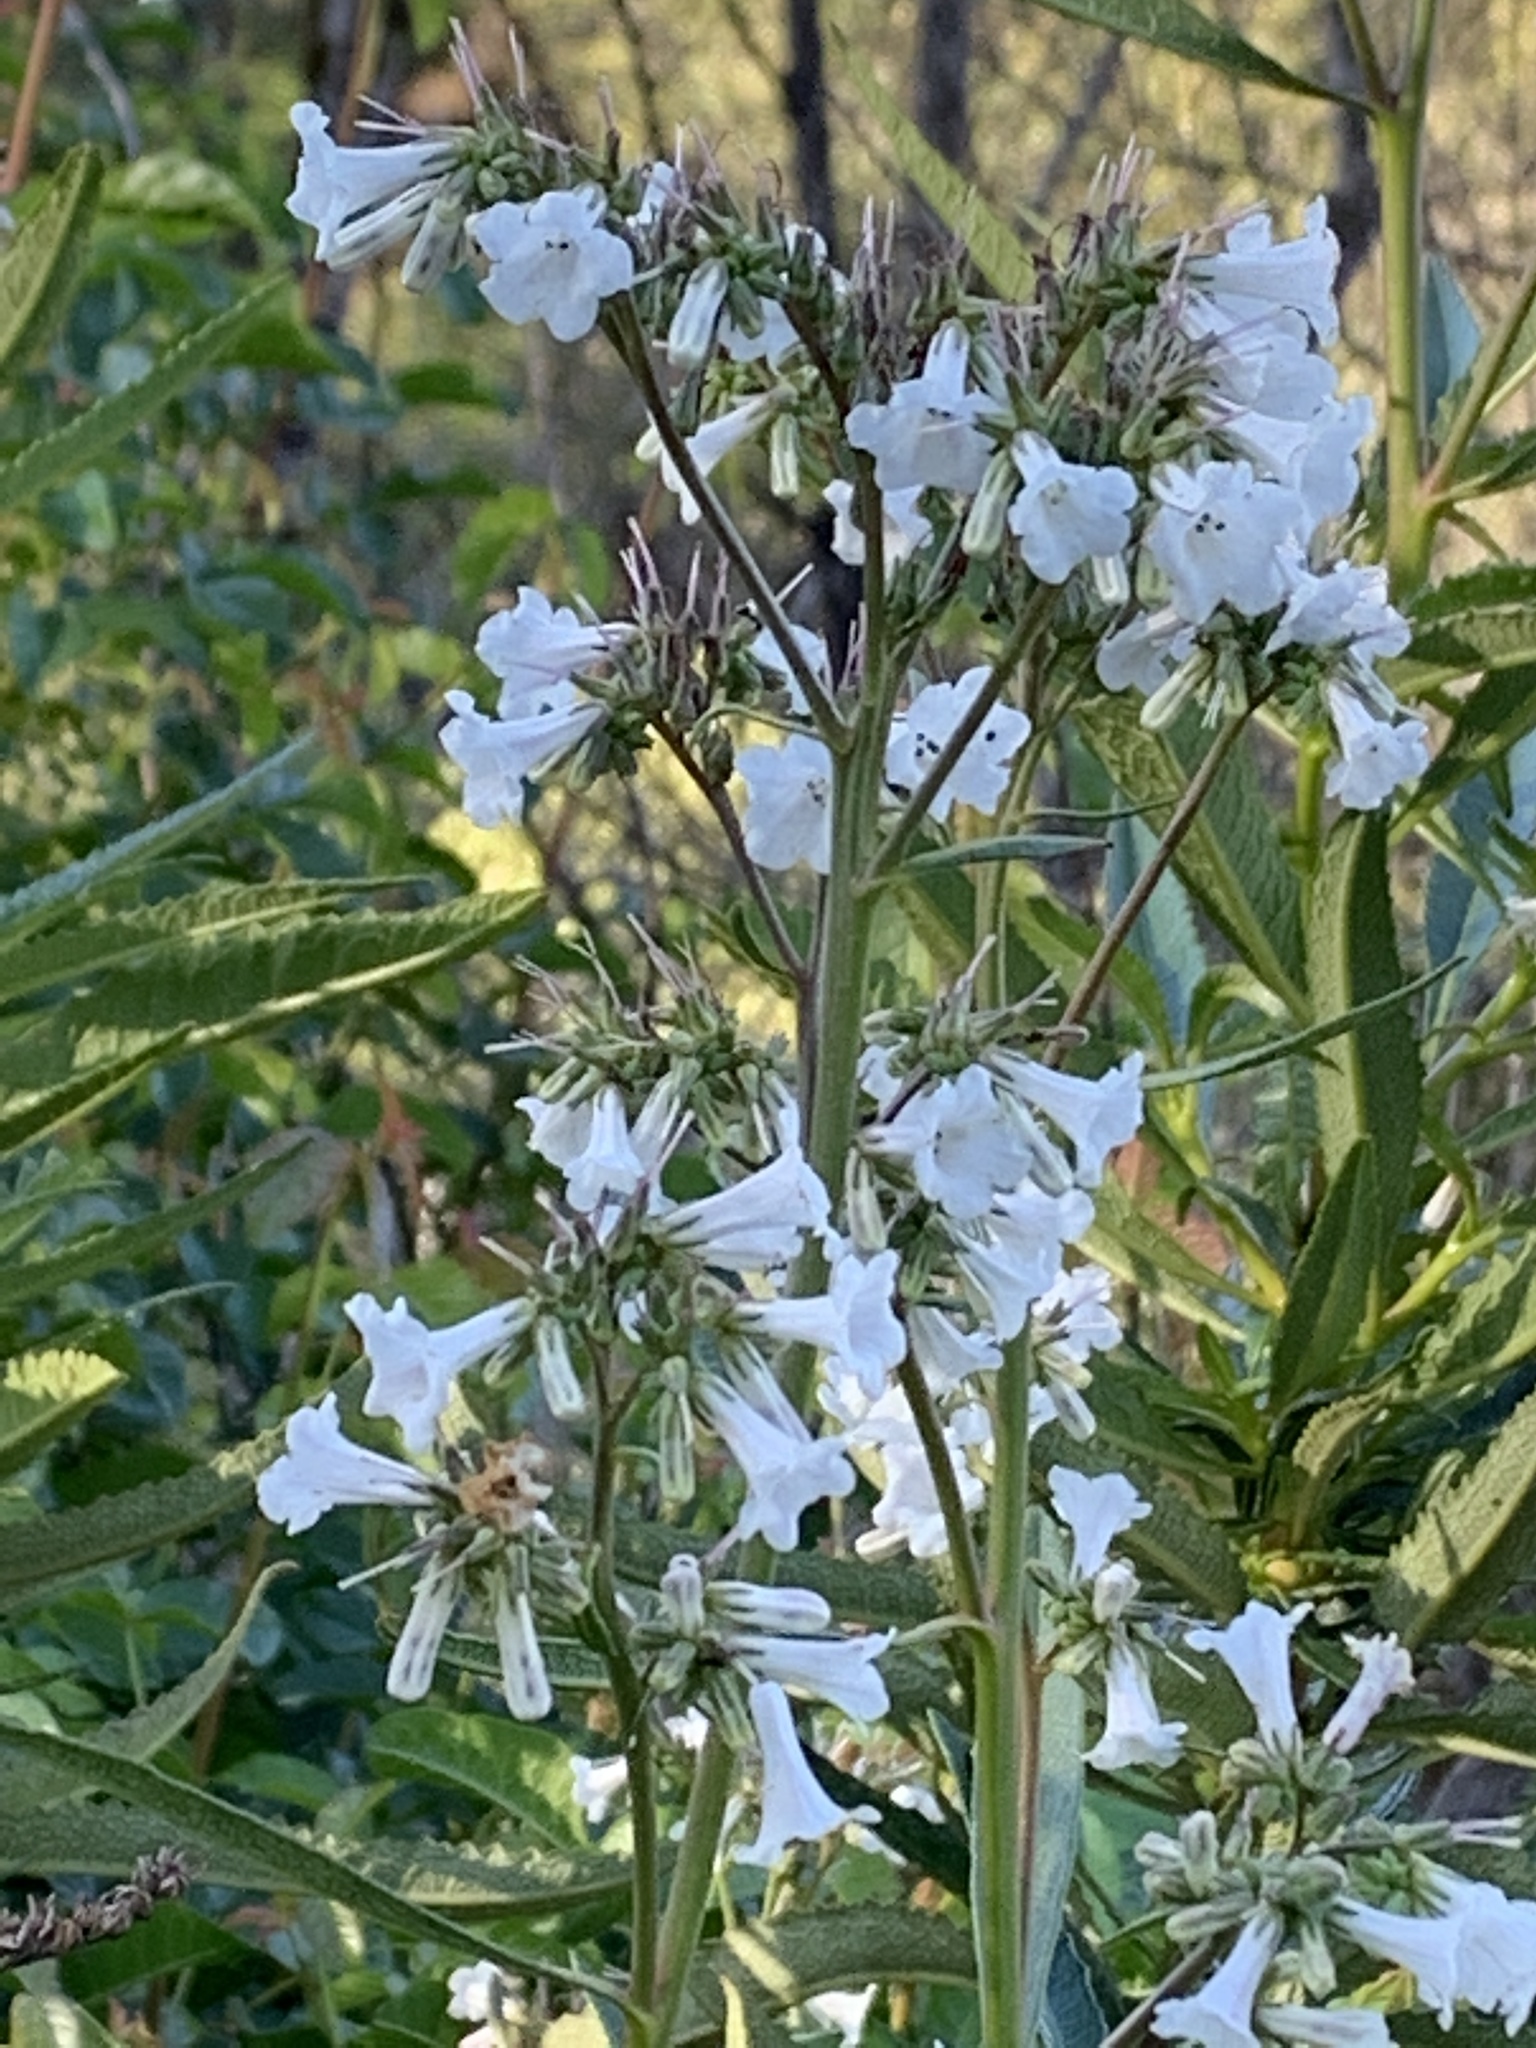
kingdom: Plantae
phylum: Tracheophyta
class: Magnoliopsida
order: Boraginales
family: Namaceae
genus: Eriodictyon
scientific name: Eriodictyon californicum
